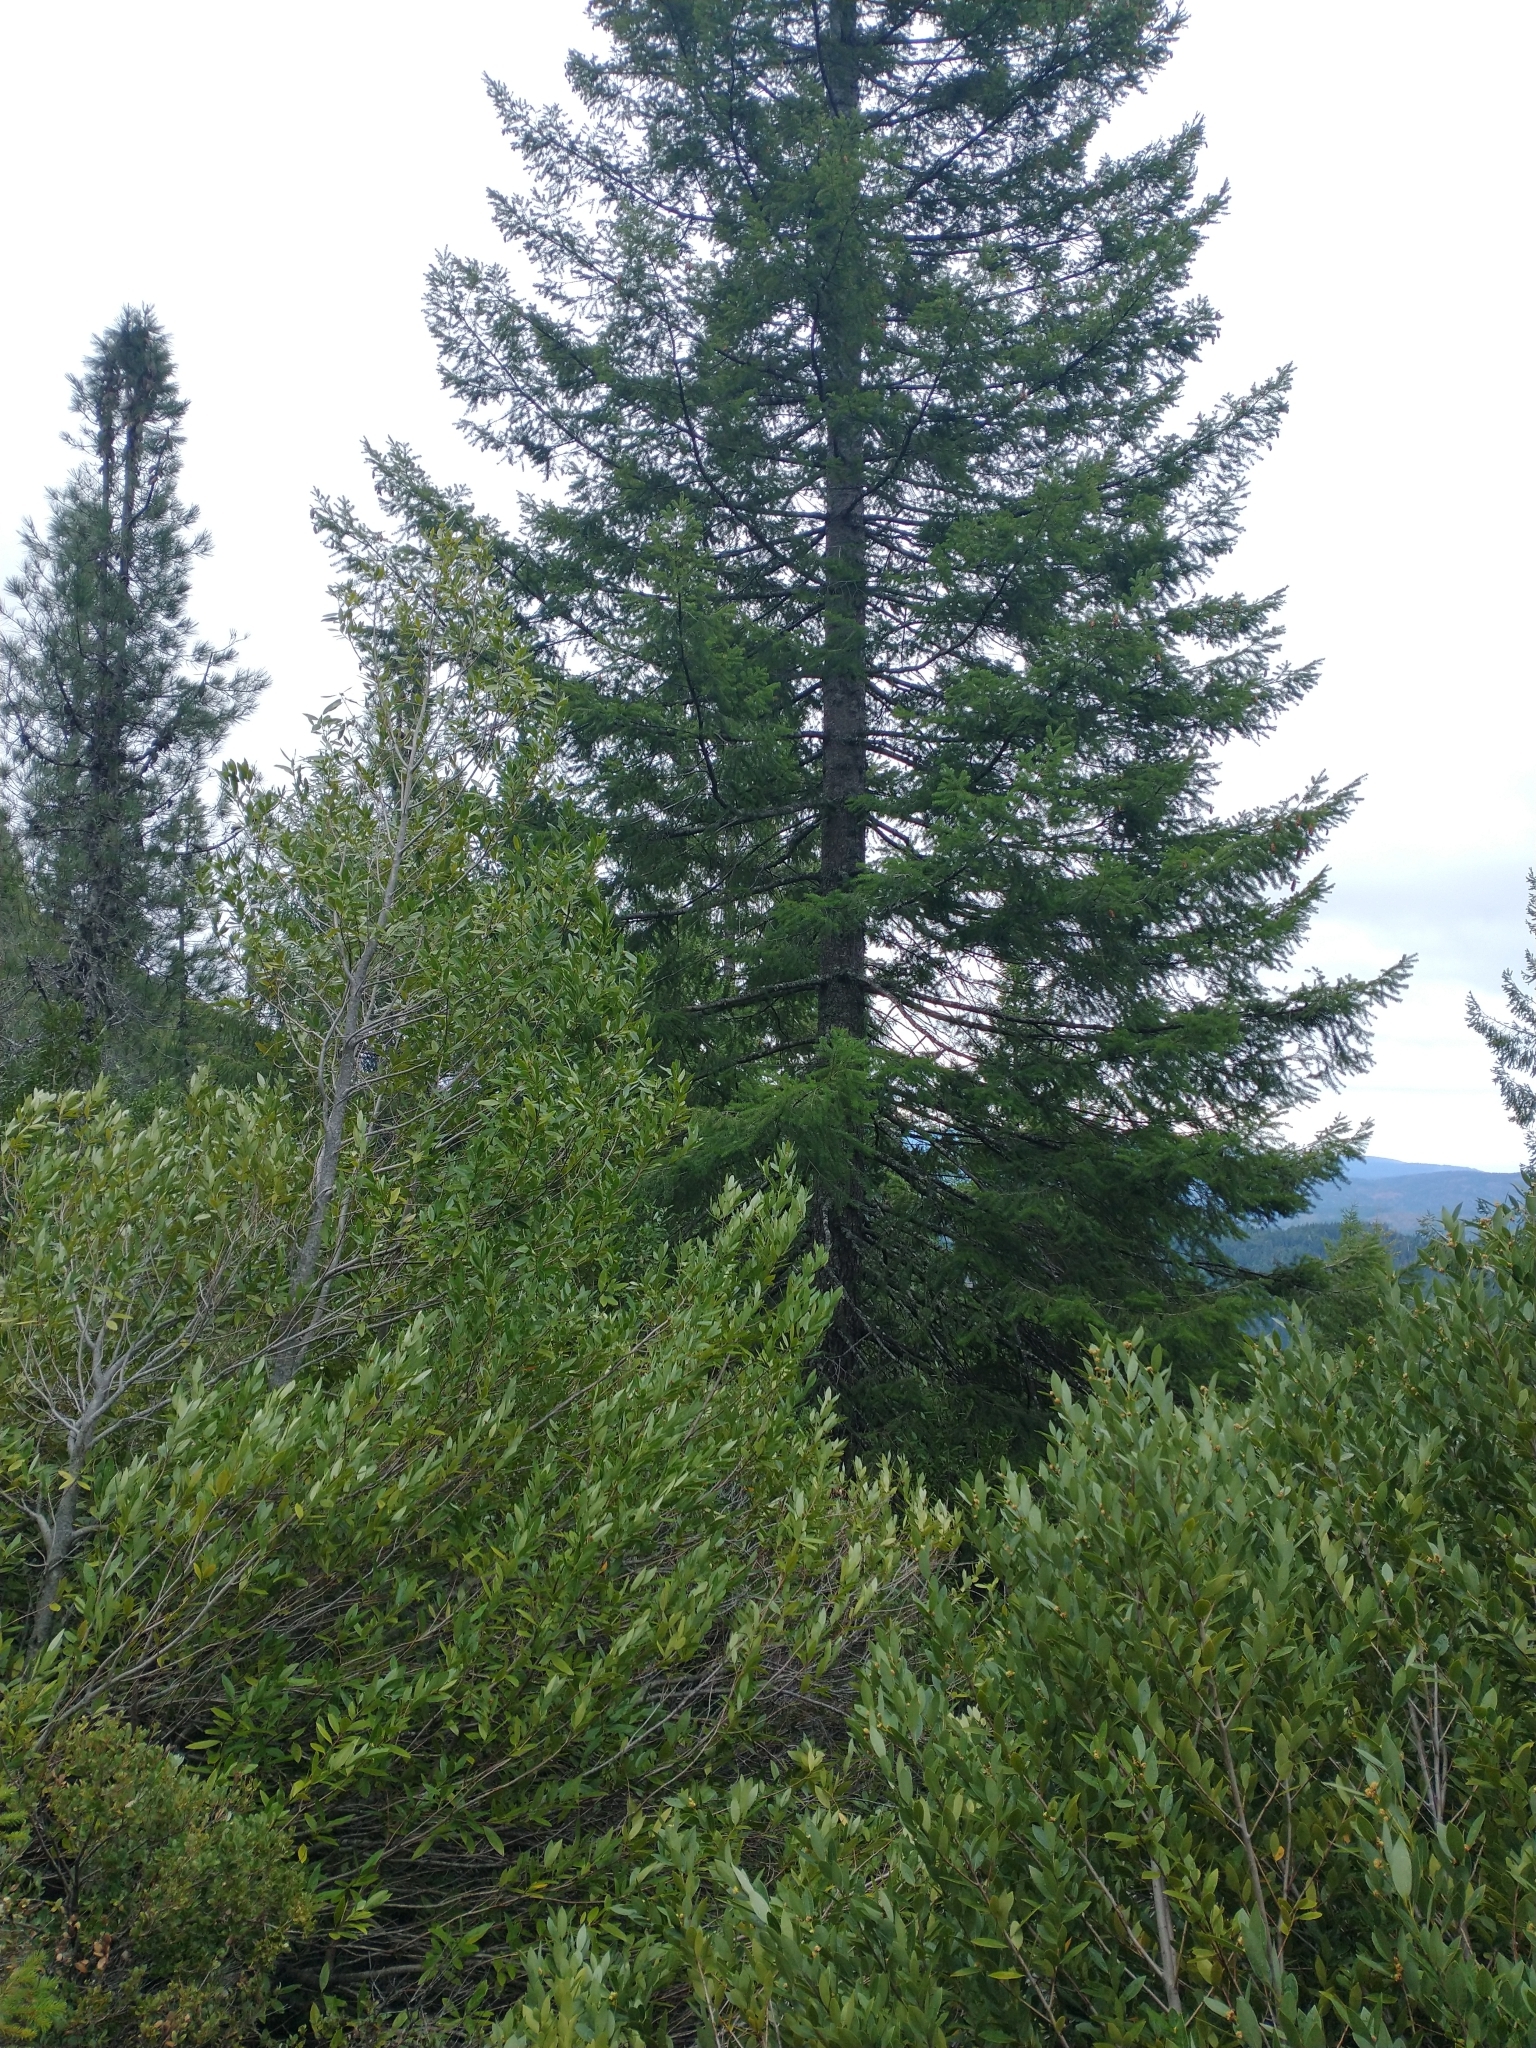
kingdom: Plantae
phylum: Tracheophyta
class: Magnoliopsida
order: Laurales
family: Lauraceae
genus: Umbellularia
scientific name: Umbellularia californica
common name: California bay
